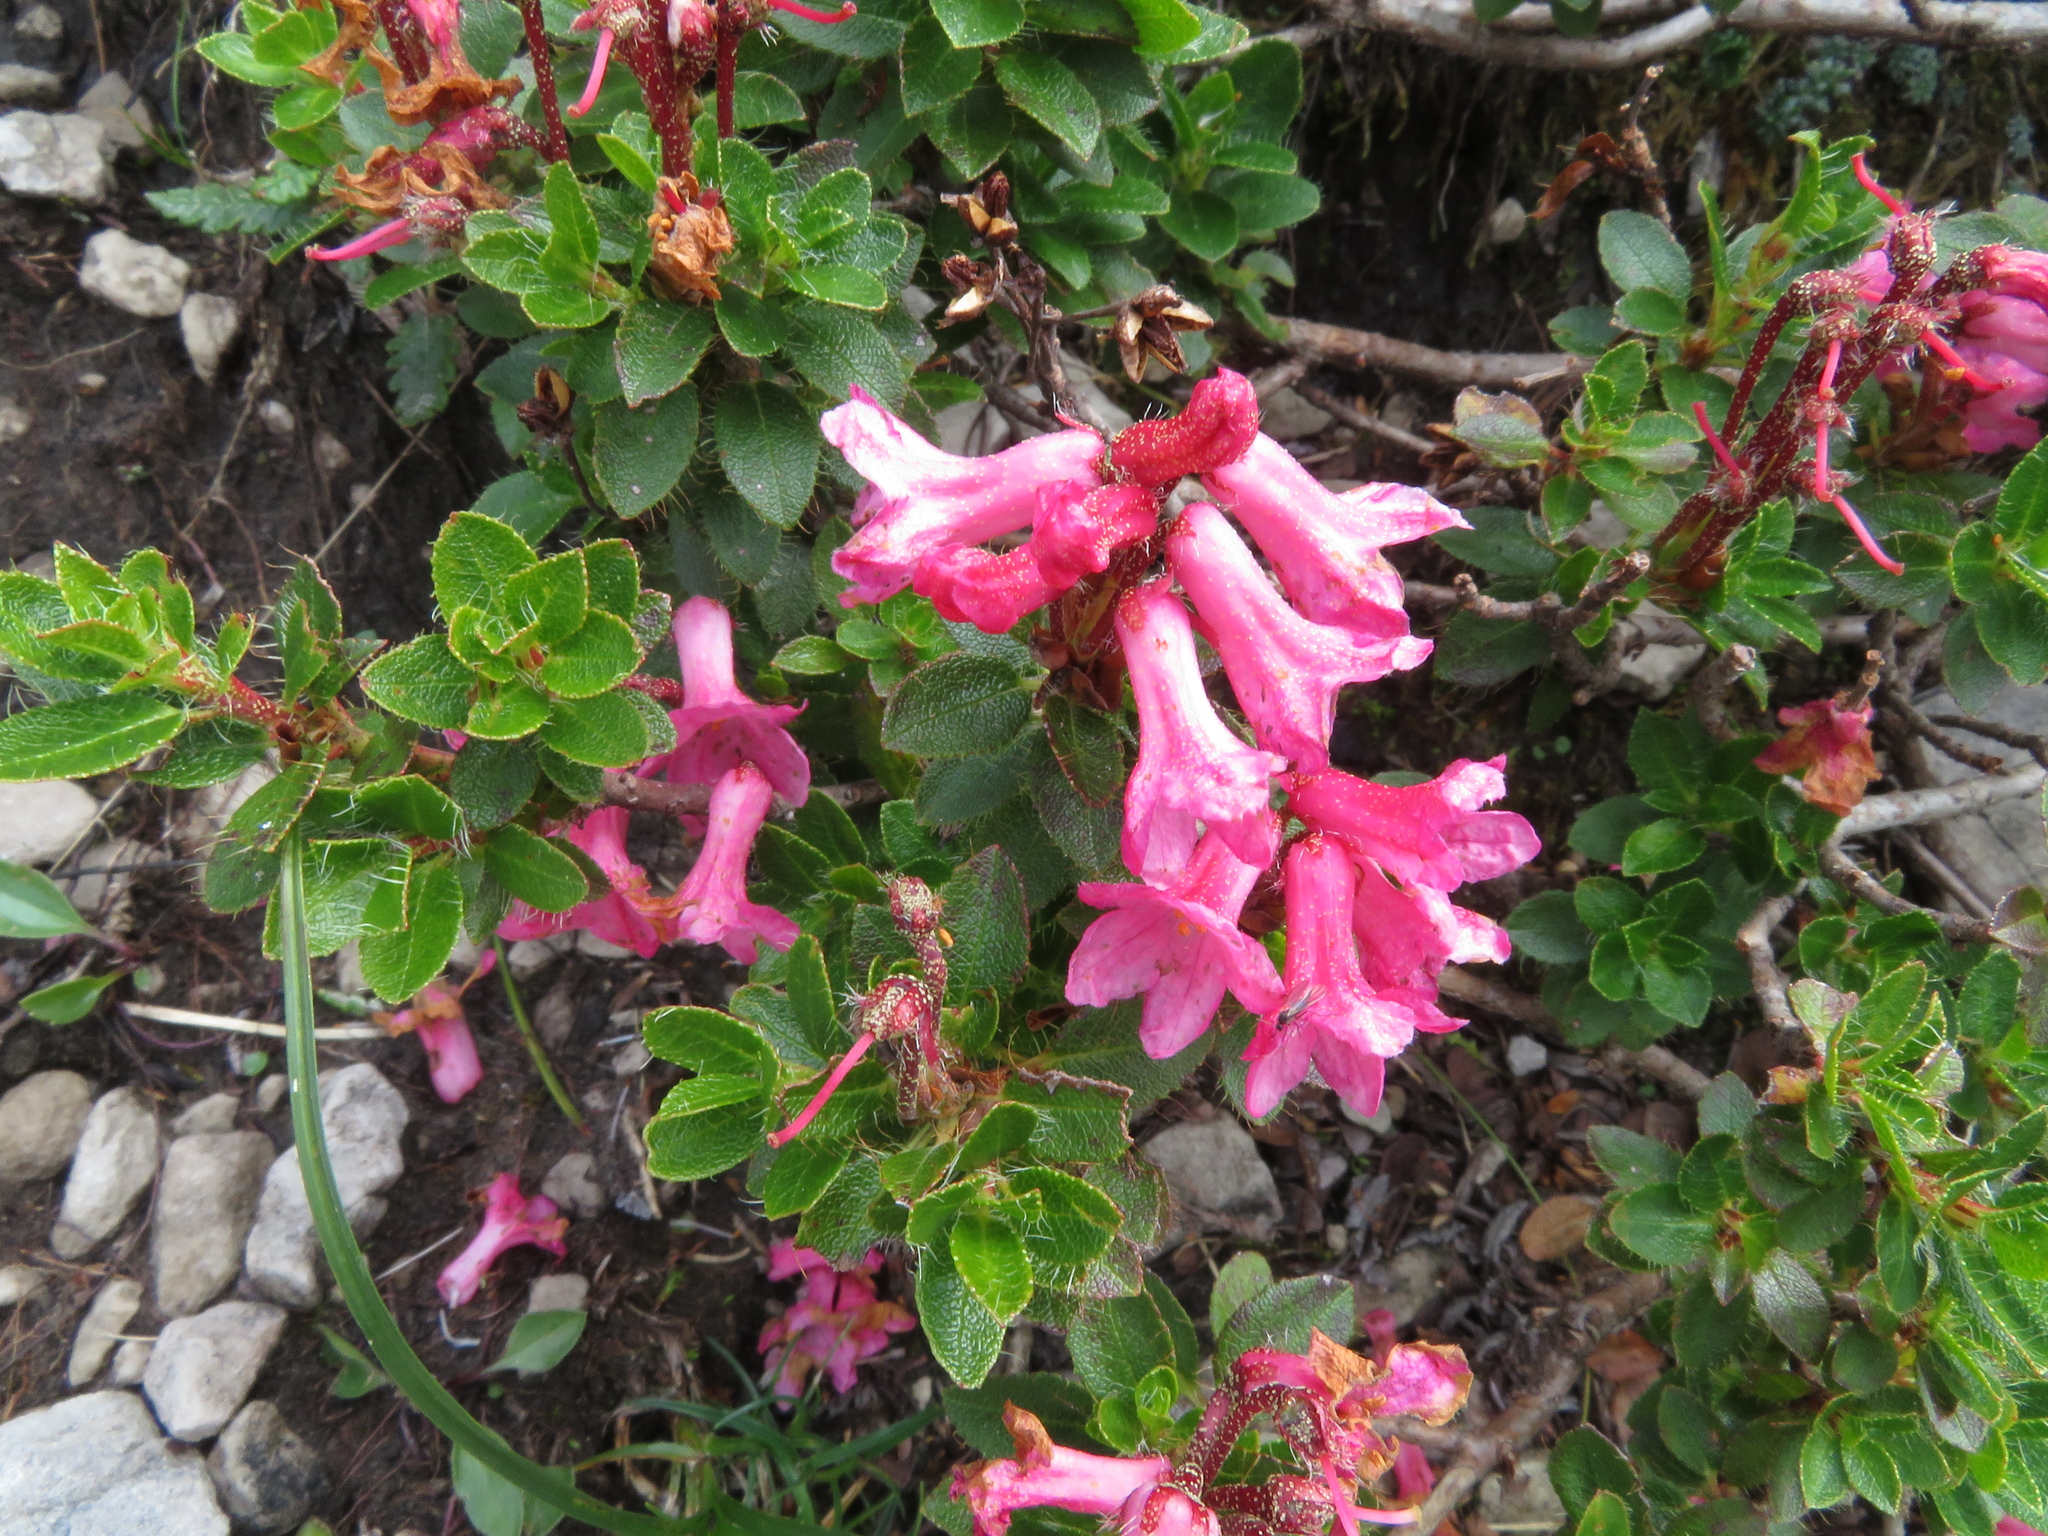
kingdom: Plantae
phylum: Tracheophyta
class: Magnoliopsida
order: Ericales
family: Ericaceae
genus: Rhododendron
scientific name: Rhododendron hirsutum
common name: Hairy alpenrose
